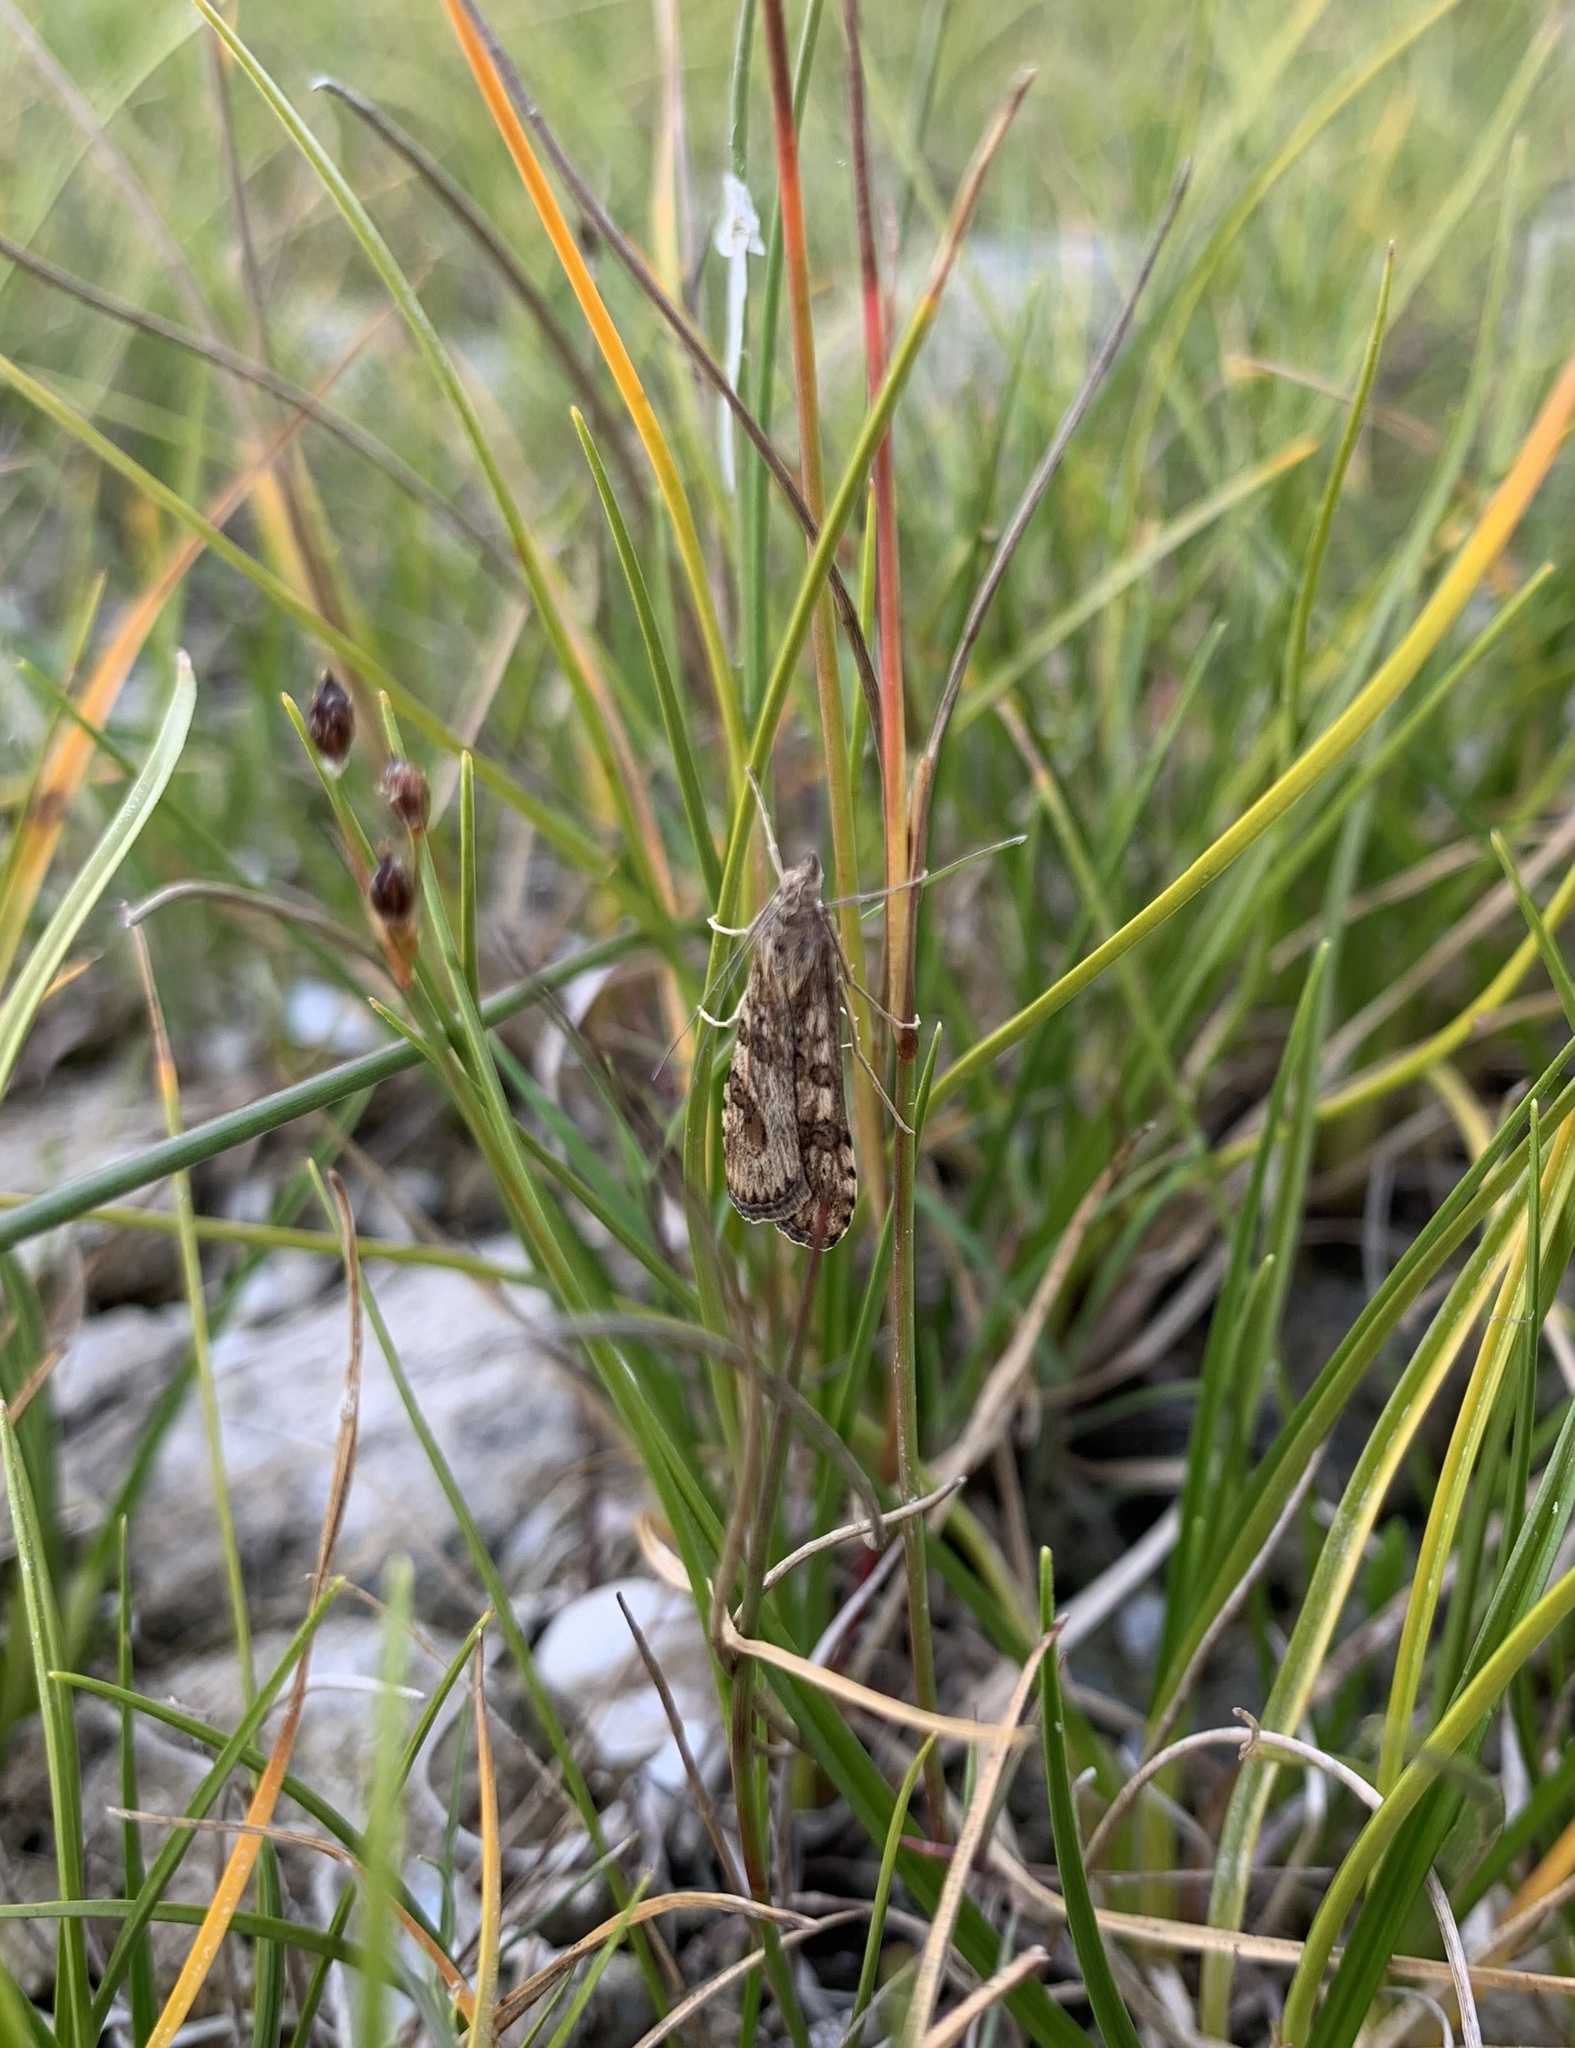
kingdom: Animalia
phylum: Arthropoda
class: Insecta
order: Lepidoptera
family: Crambidae
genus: Nomophila
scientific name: Nomophila noctuella
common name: Rush veneer
